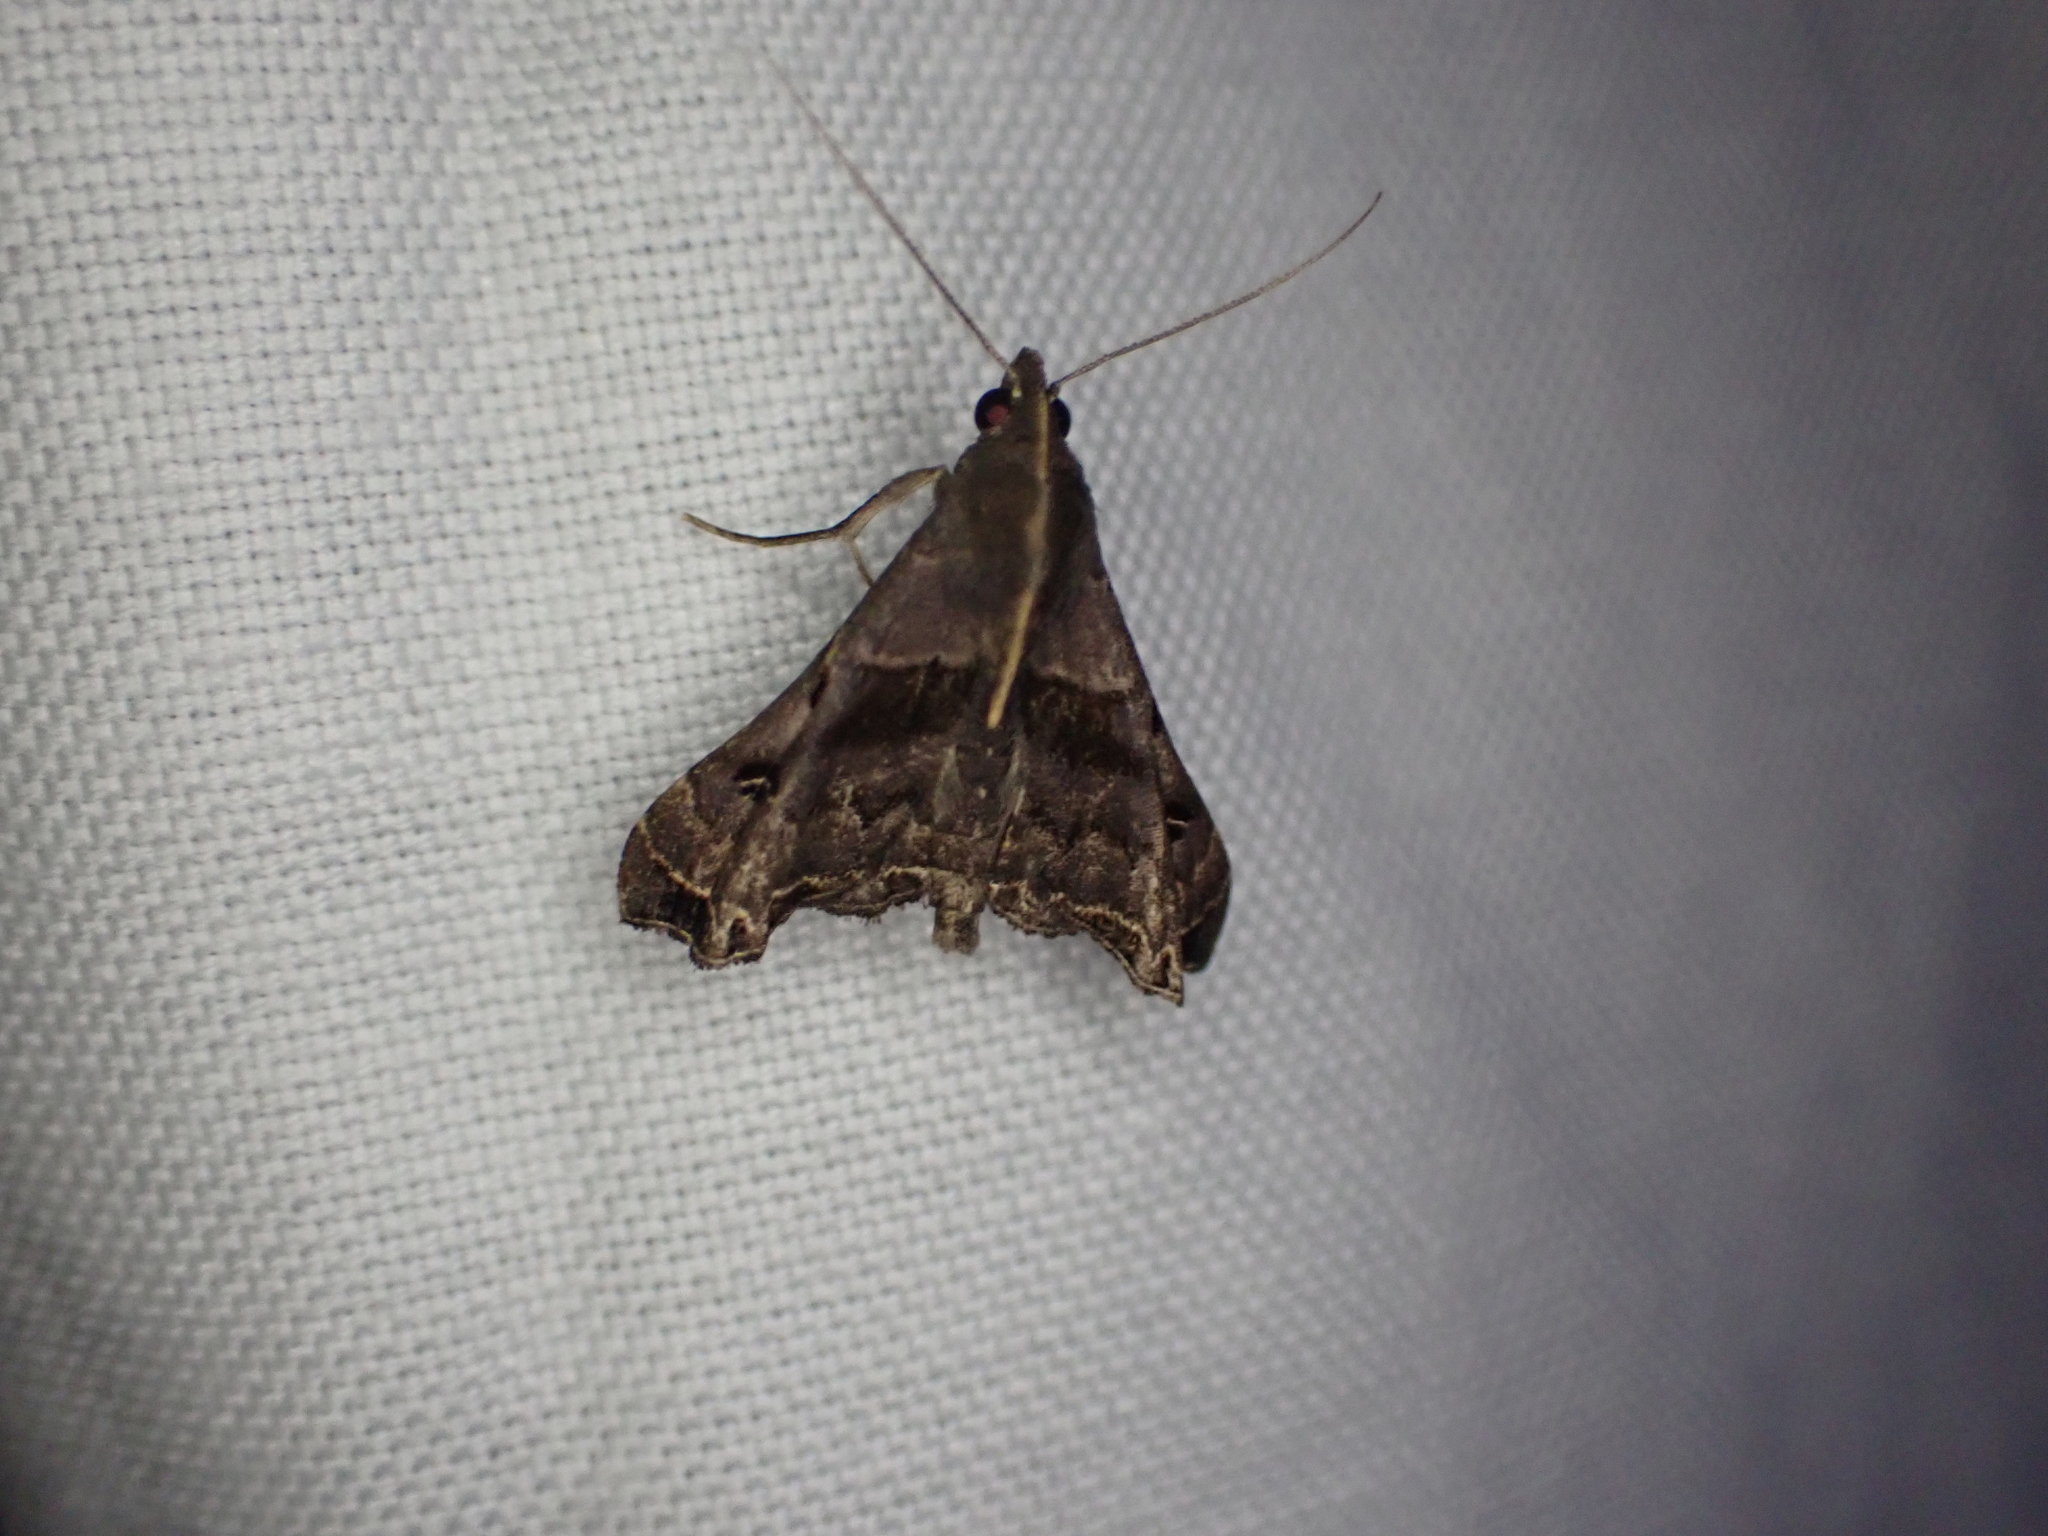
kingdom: Animalia
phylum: Arthropoda
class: Insecta
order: Lepidoptera
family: Erebidae
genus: Palthis
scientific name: Palthis asopialis
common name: Faint-spotted palthis moth
